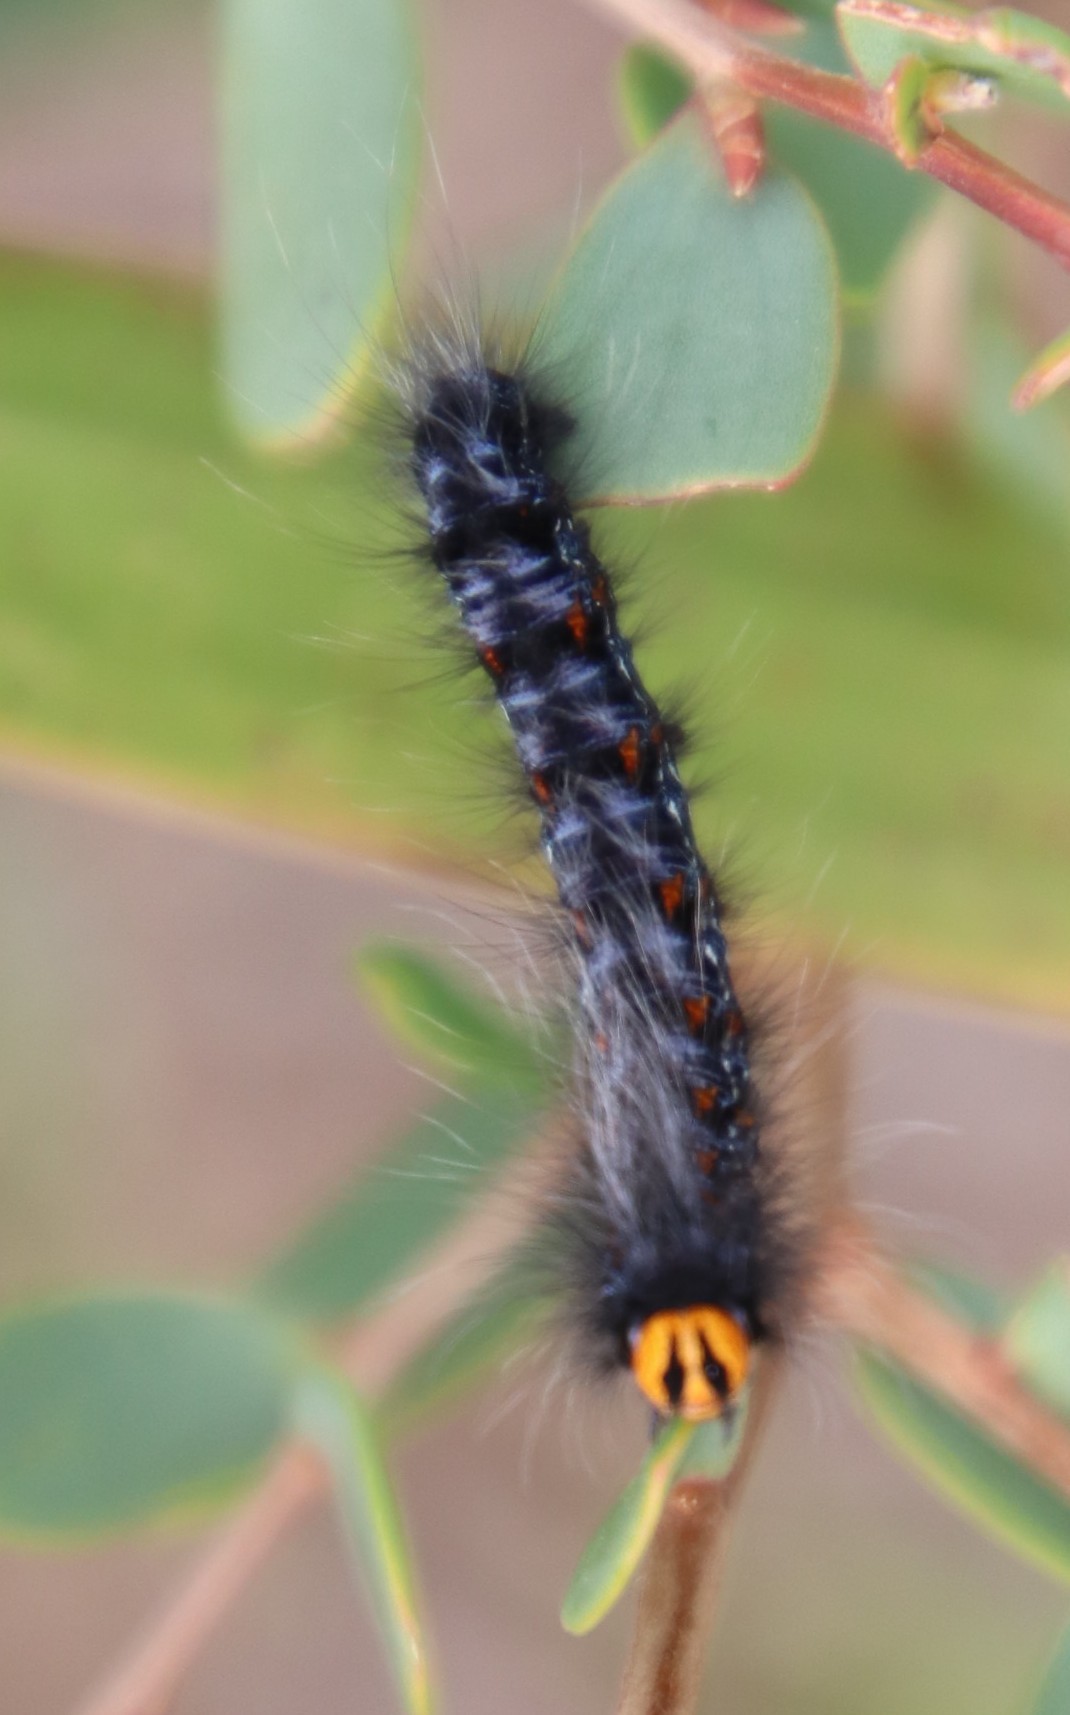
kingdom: Plantae
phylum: Tracheophyta
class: Magnoliopsida
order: Myrtales
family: Myrtaceae
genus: Leptospermum
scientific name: Leptospermum laevigatum
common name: Australian teatree
